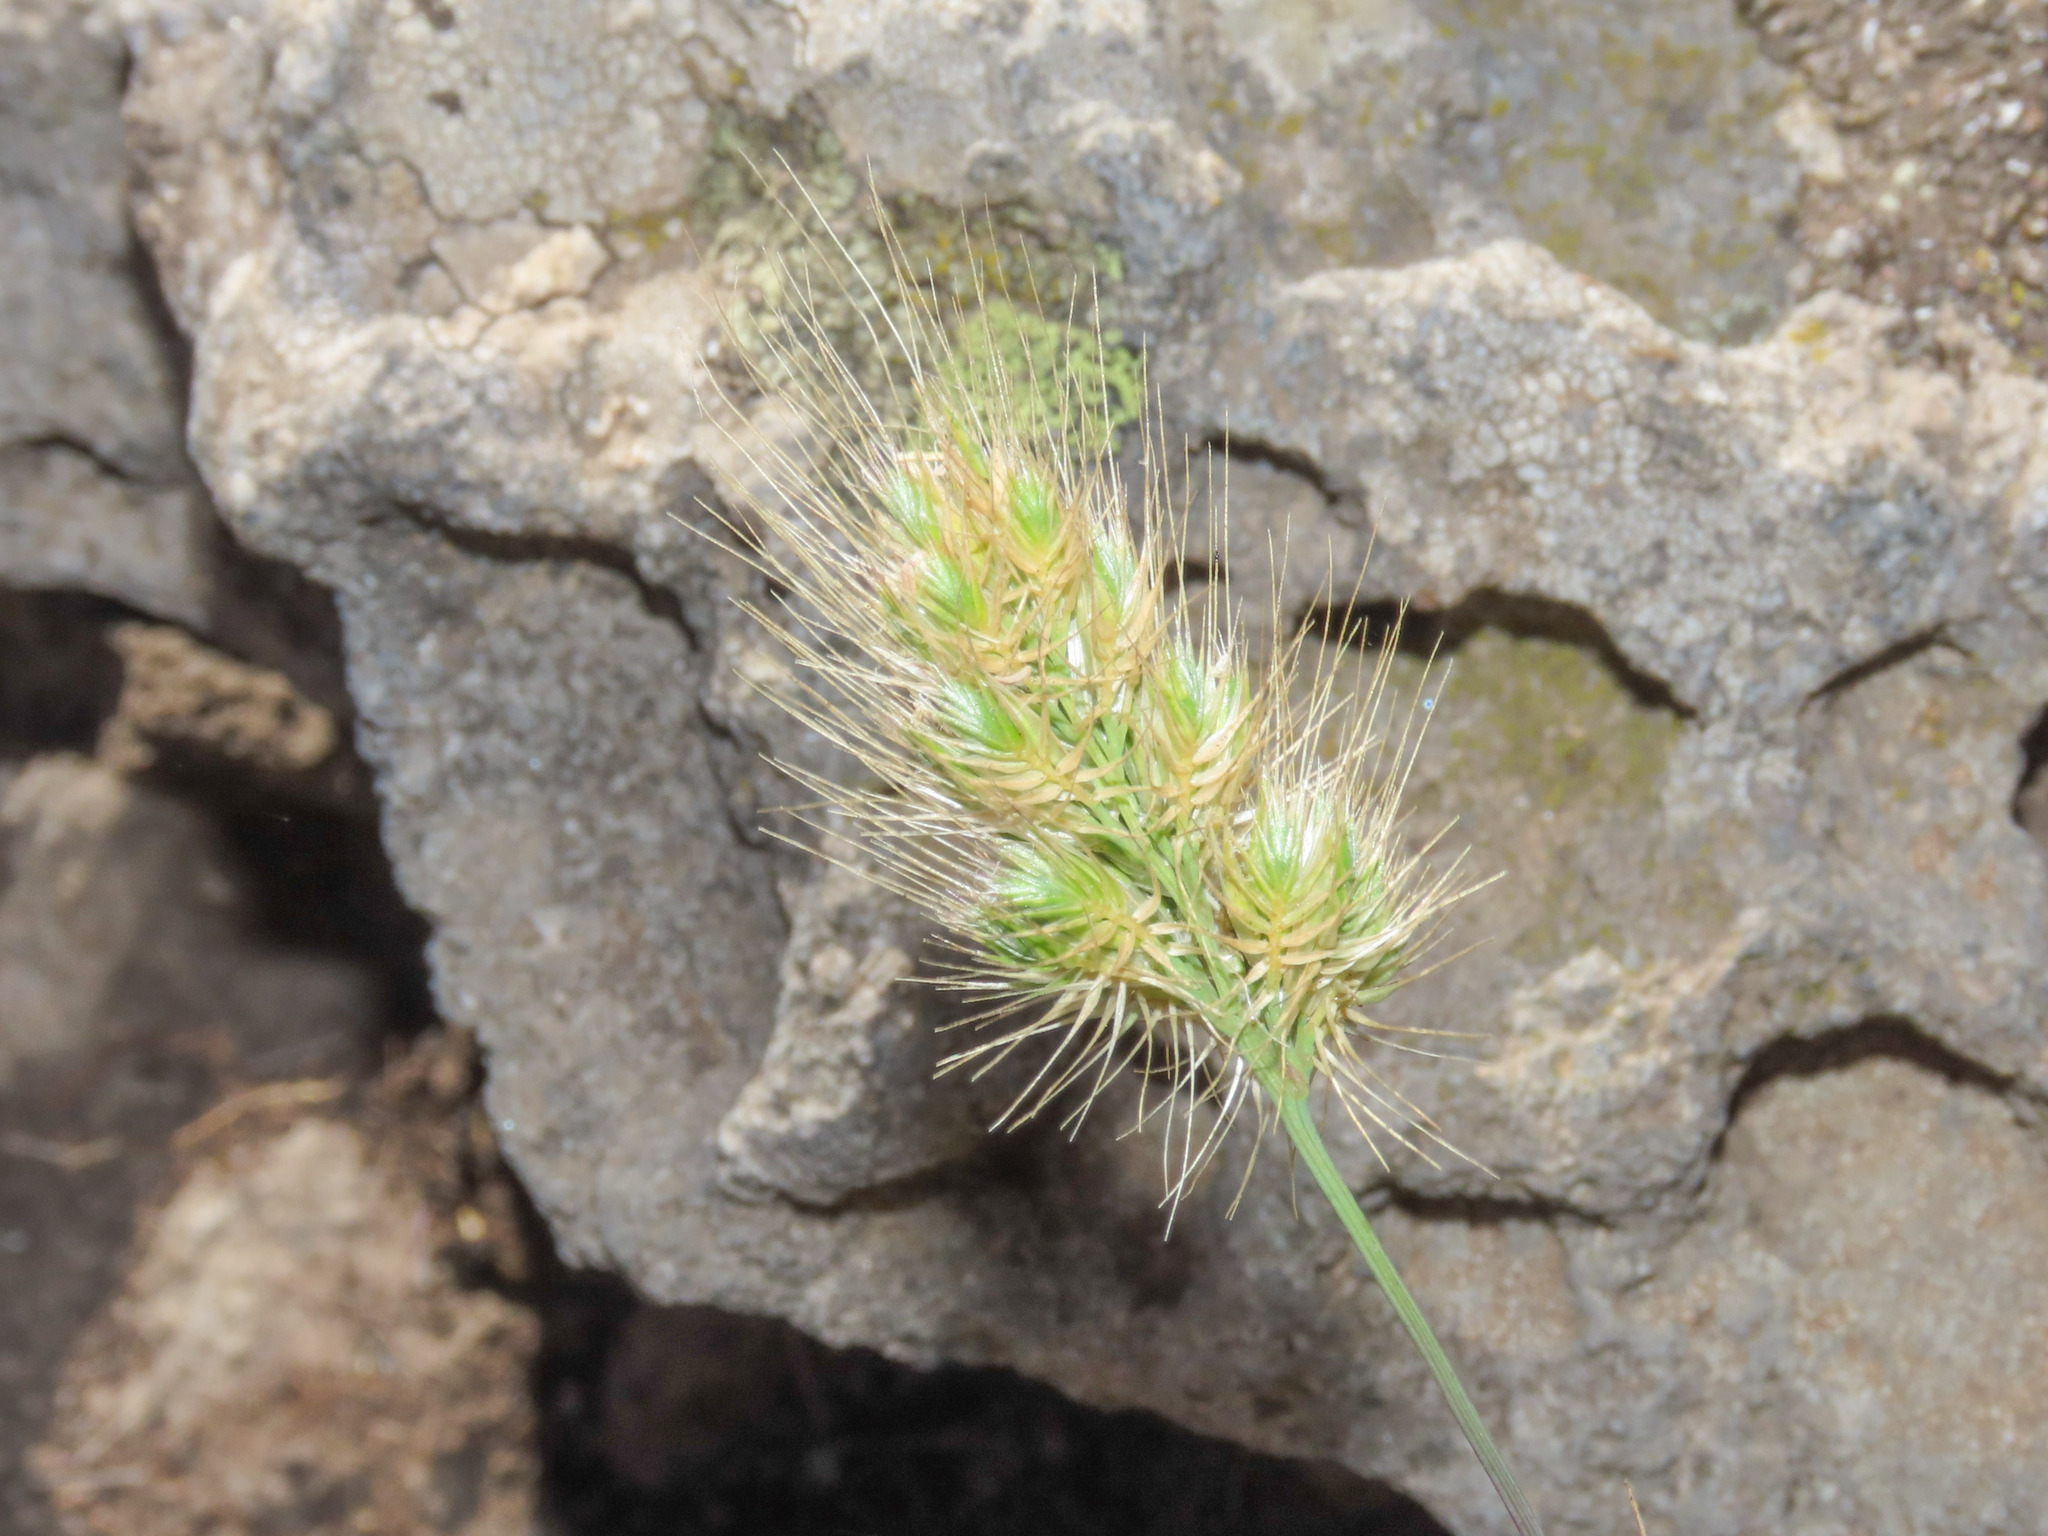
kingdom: Plantae
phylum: Tracheophyta
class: Liliopsida
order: Poales
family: Poaceae
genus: Cynosurus
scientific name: Cynosurus echinatus
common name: Rough dog's-tail
